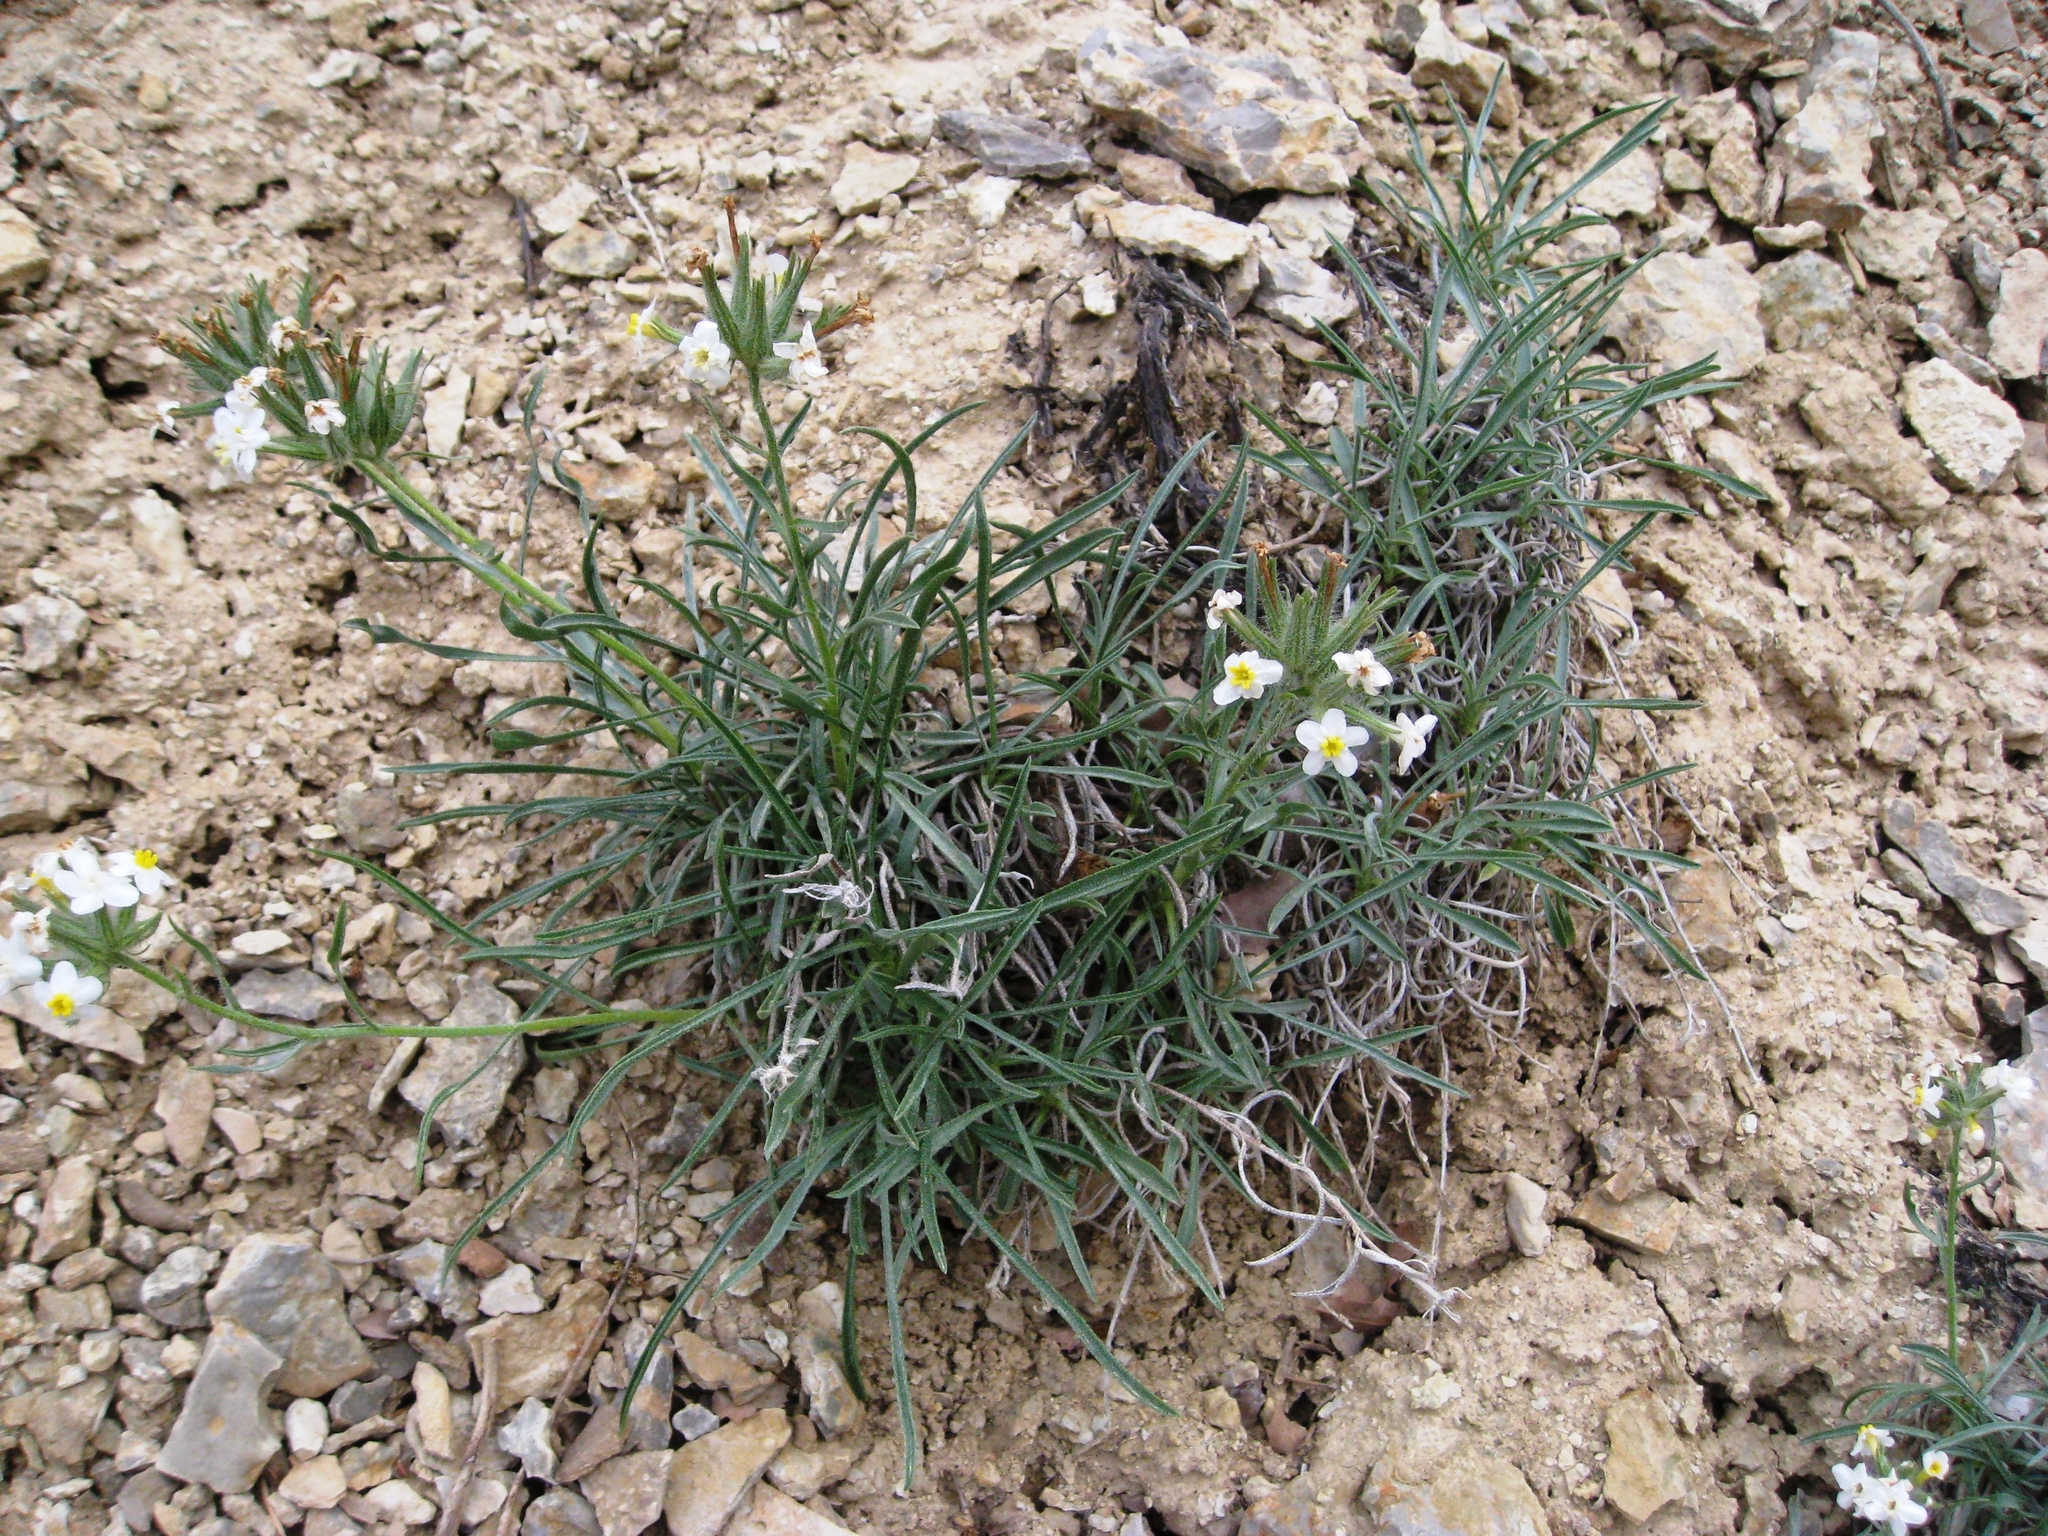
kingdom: Plantae
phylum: Tracheophyta
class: Magnoliopsida
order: Boraginales
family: Boraginaceae
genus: Oreocarya
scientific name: Oreocarya capitata
